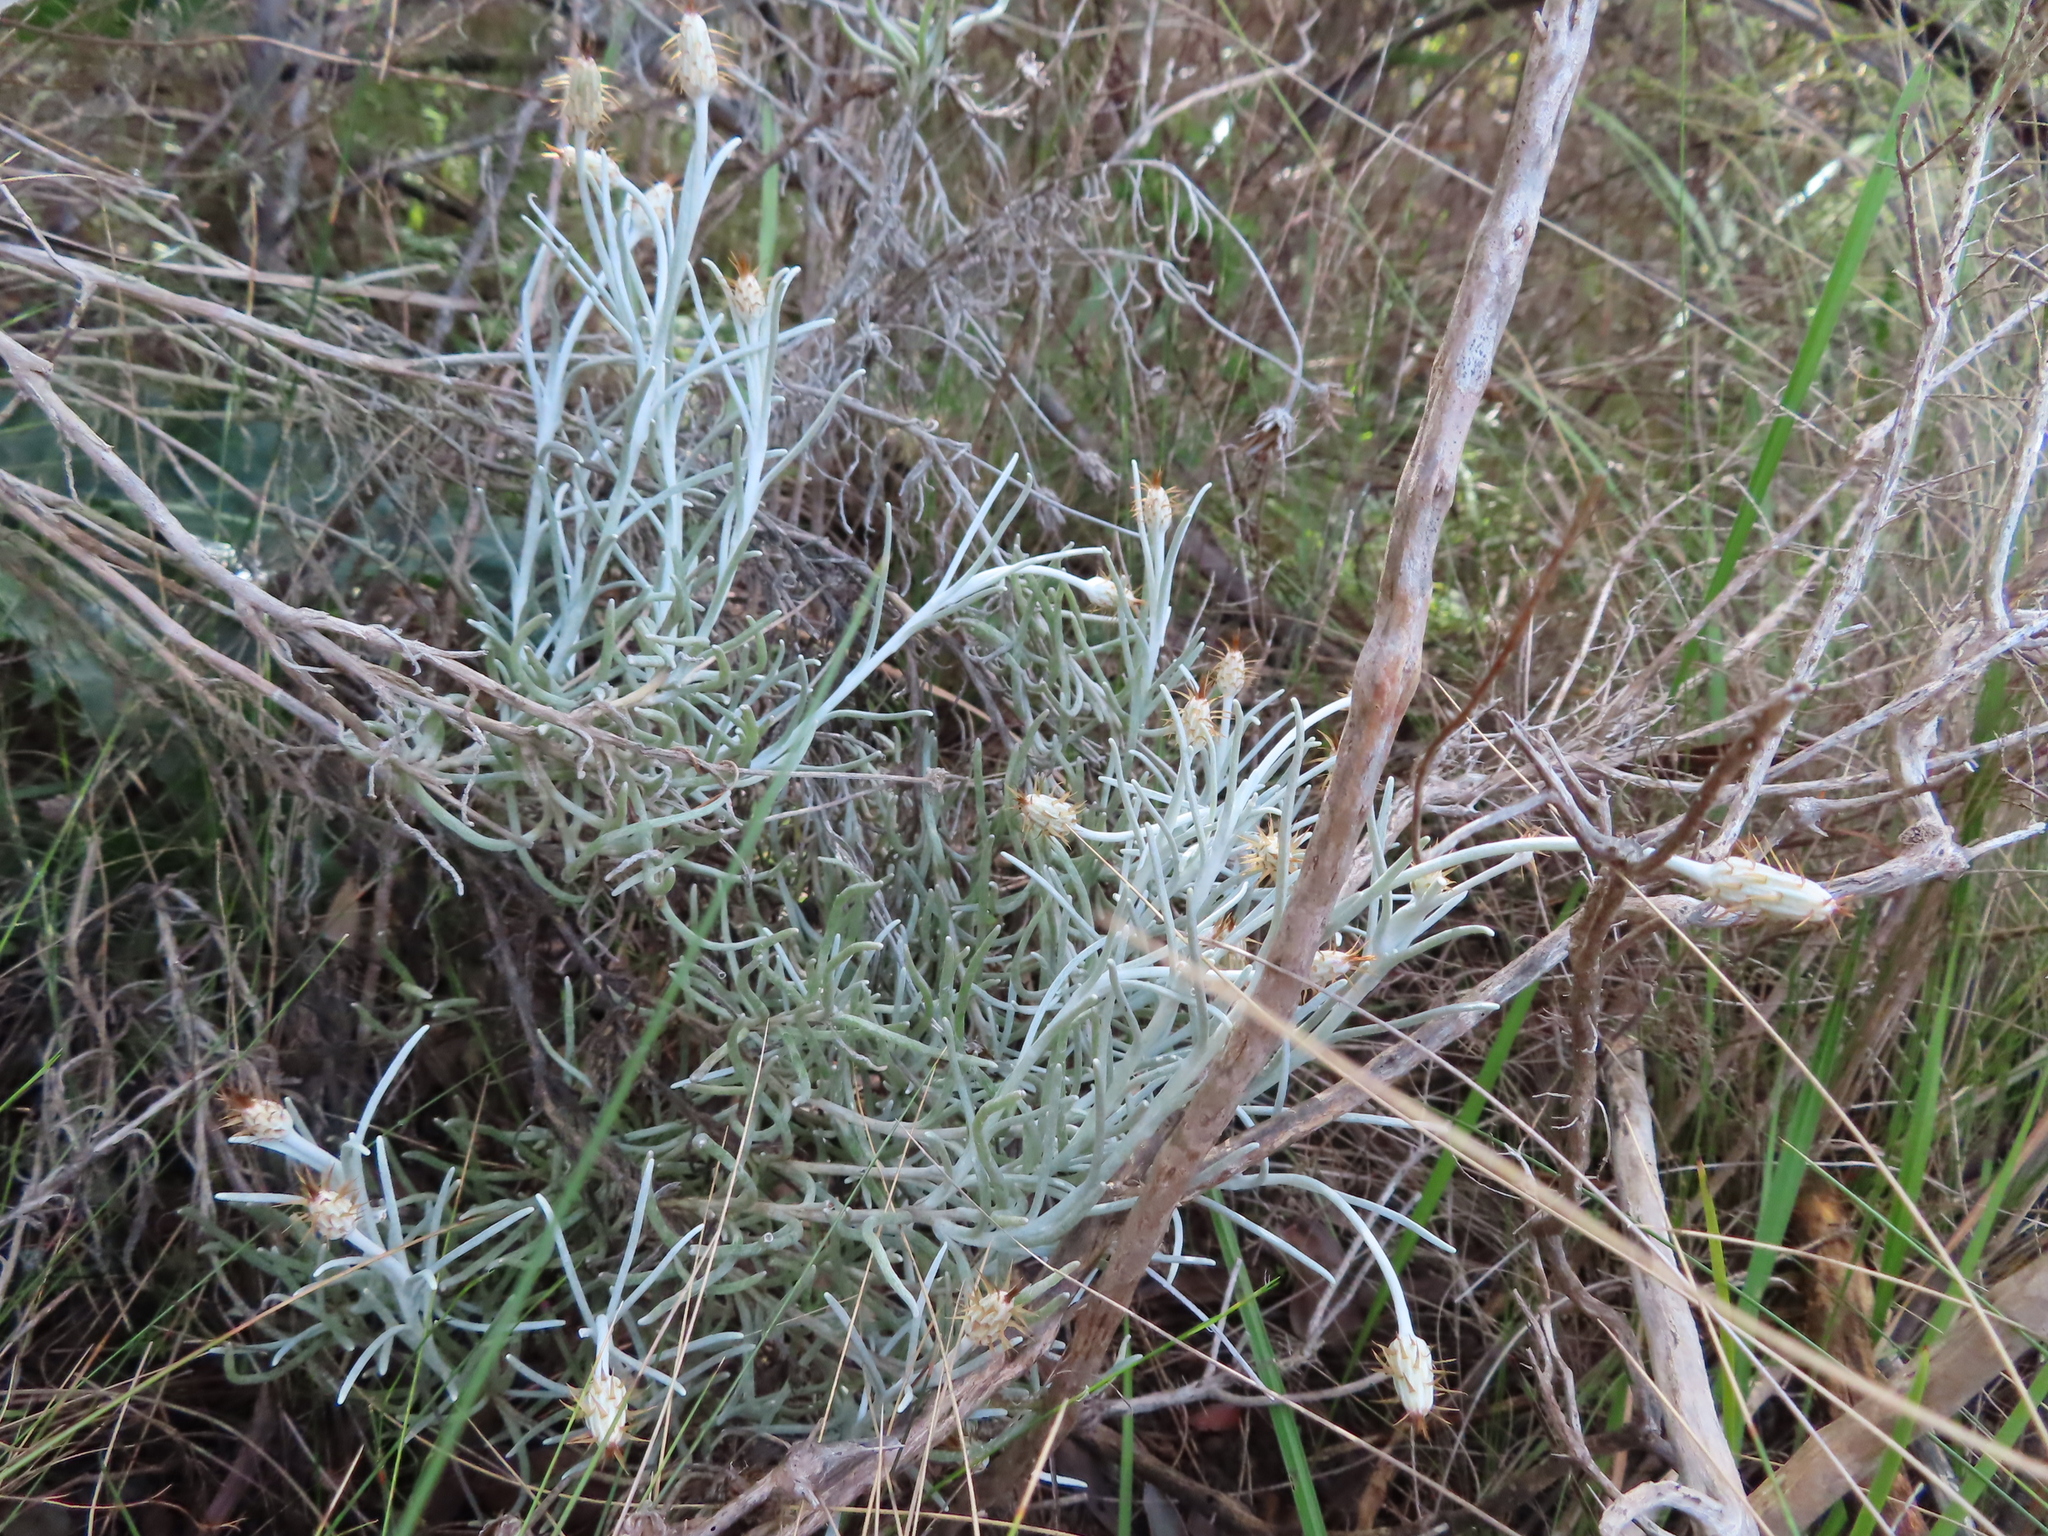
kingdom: Plantae
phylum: Tracheophyta
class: Magnoliopsida
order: Asterales
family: Asteraceae
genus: Syncarpha
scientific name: Syncarpha gnaphaloides
